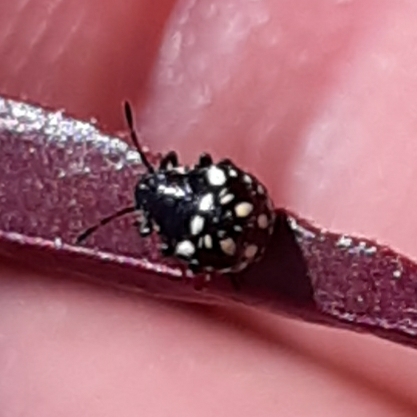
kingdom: Animalia
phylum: Arthropoda
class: Insecta
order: Hemiptera
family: Pentatomidae
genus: Nezara
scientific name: Nezara viridula
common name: Southern green stink bug
